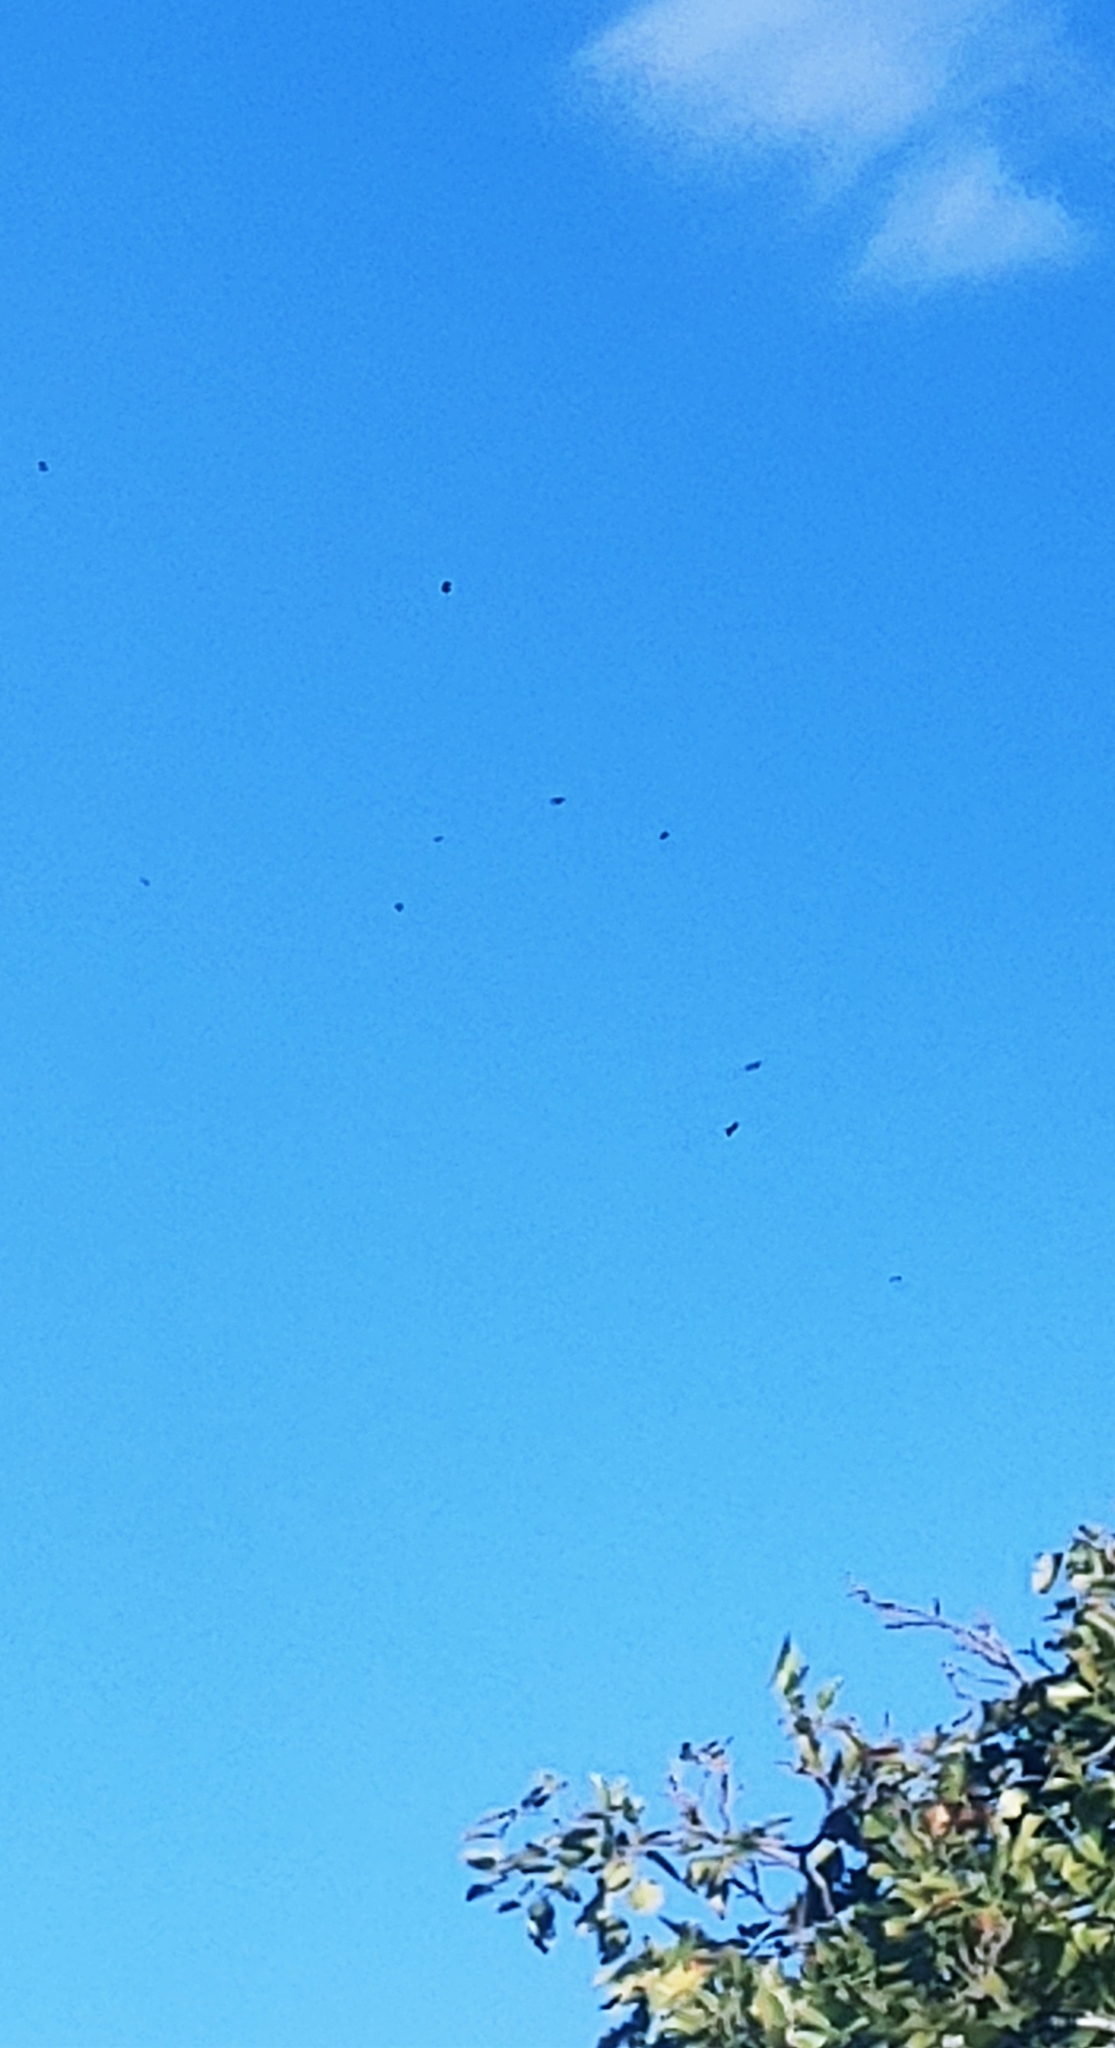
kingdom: Animalia
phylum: Chordata
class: Aves
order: Passeriformes
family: Corvidae
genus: Corvus
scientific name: Corvus ossifragus
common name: Fish crow
